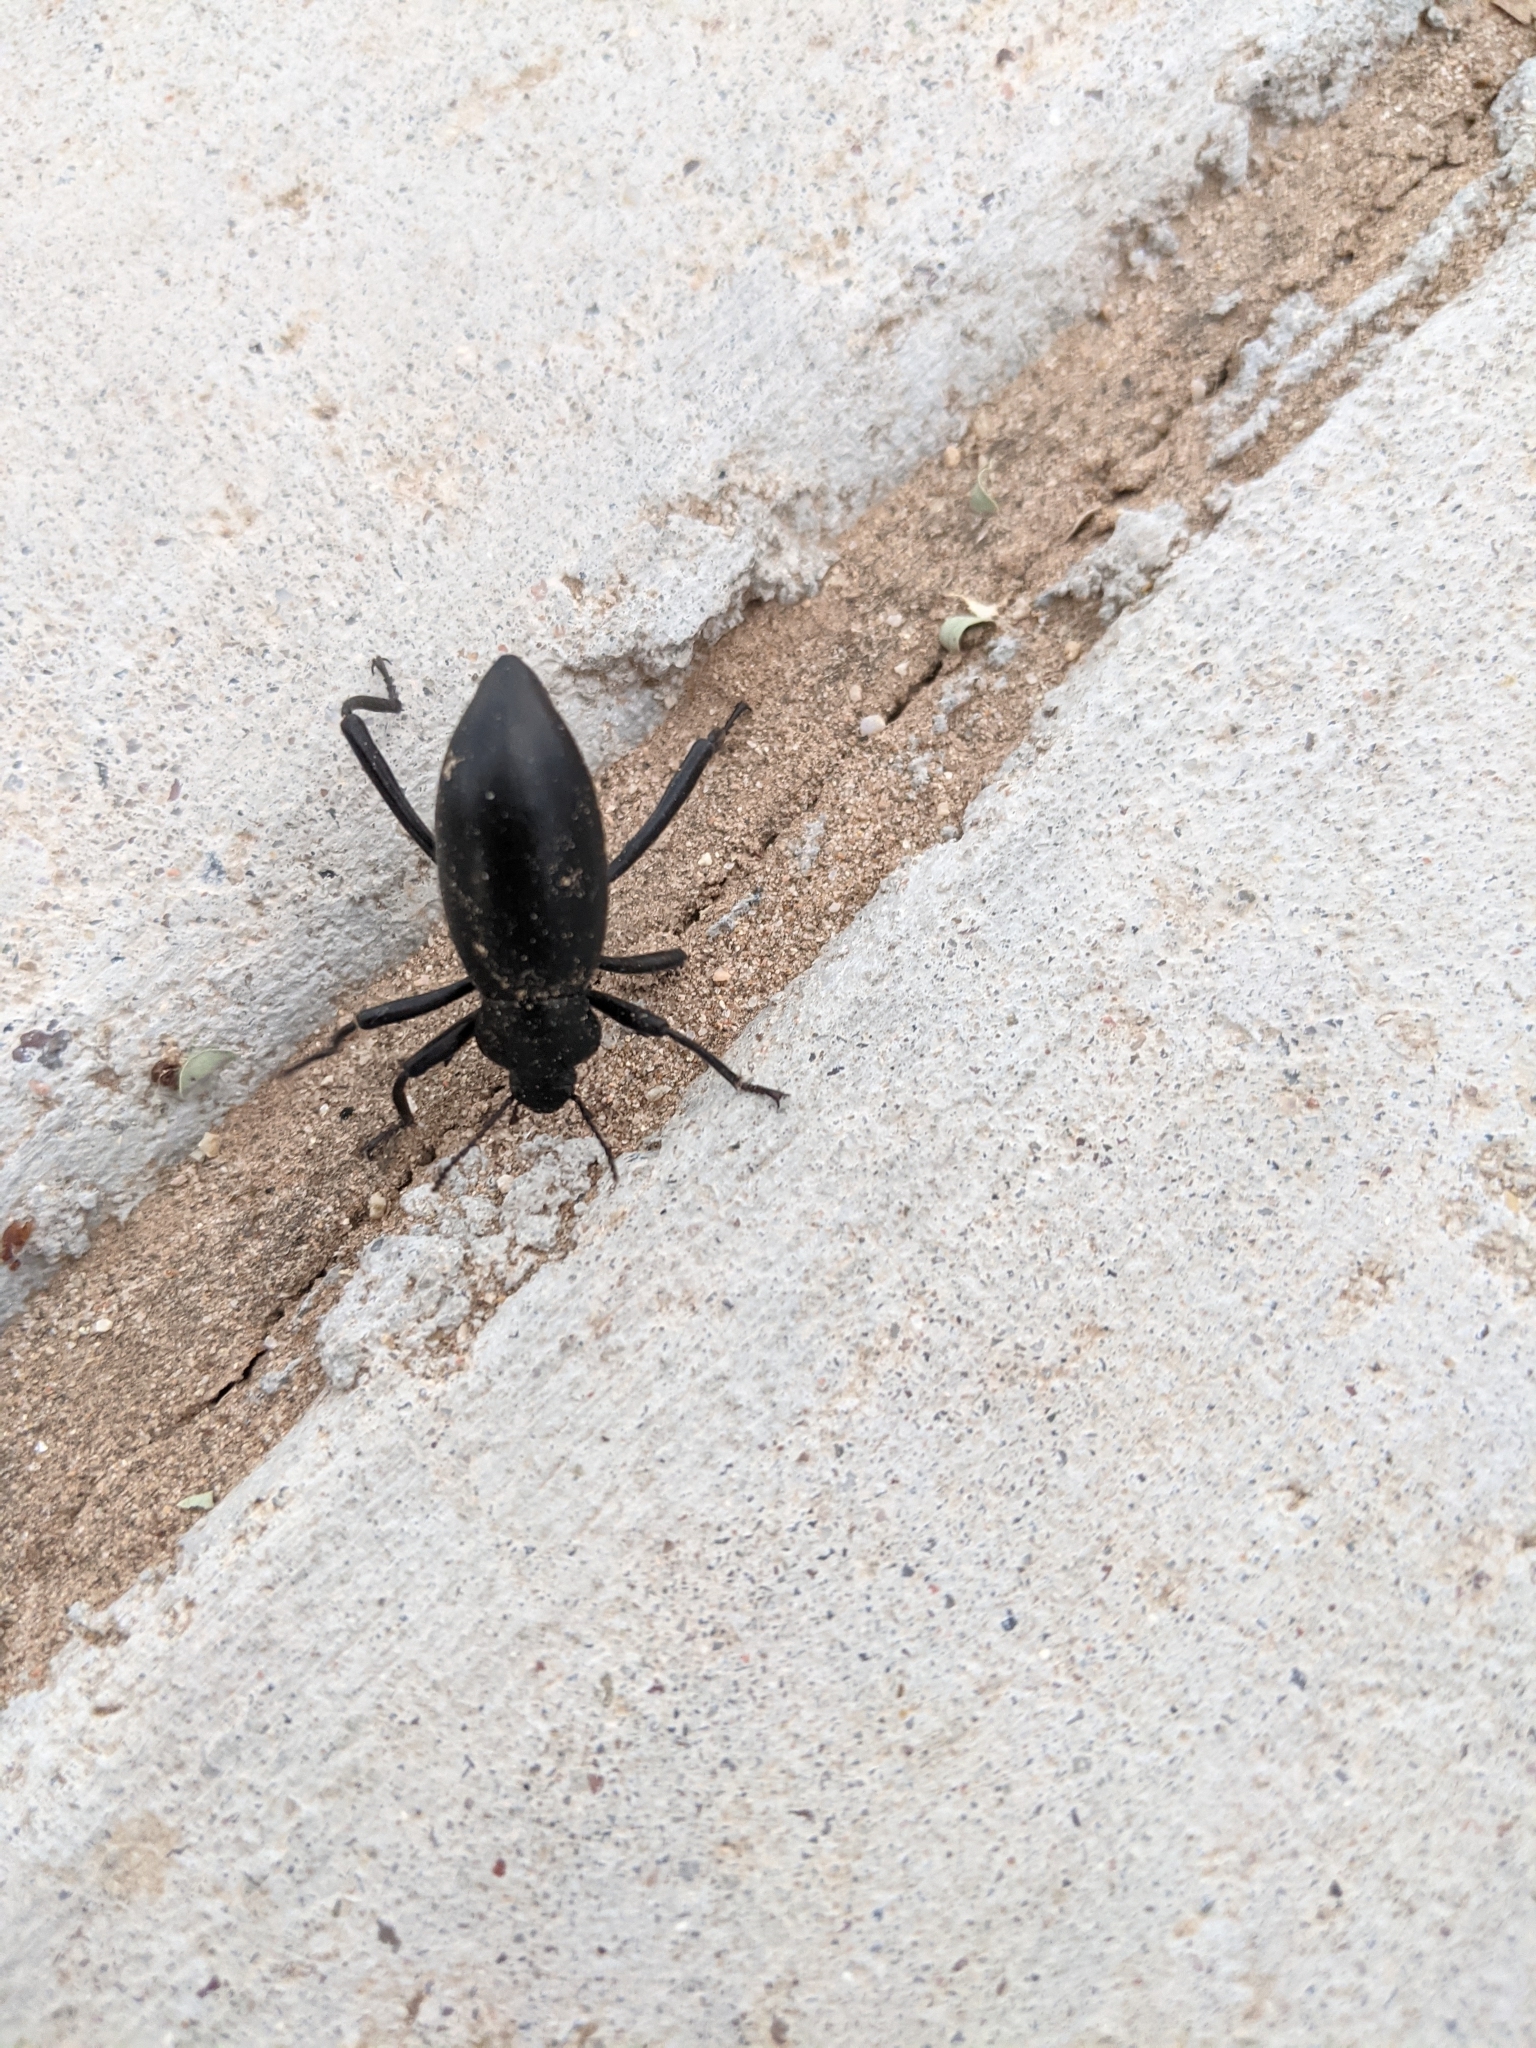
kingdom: Animalia
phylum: Arthropoda
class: Insecta
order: Coleoptera
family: Tenebrionidae
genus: Eleodes
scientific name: Eleodes armata
